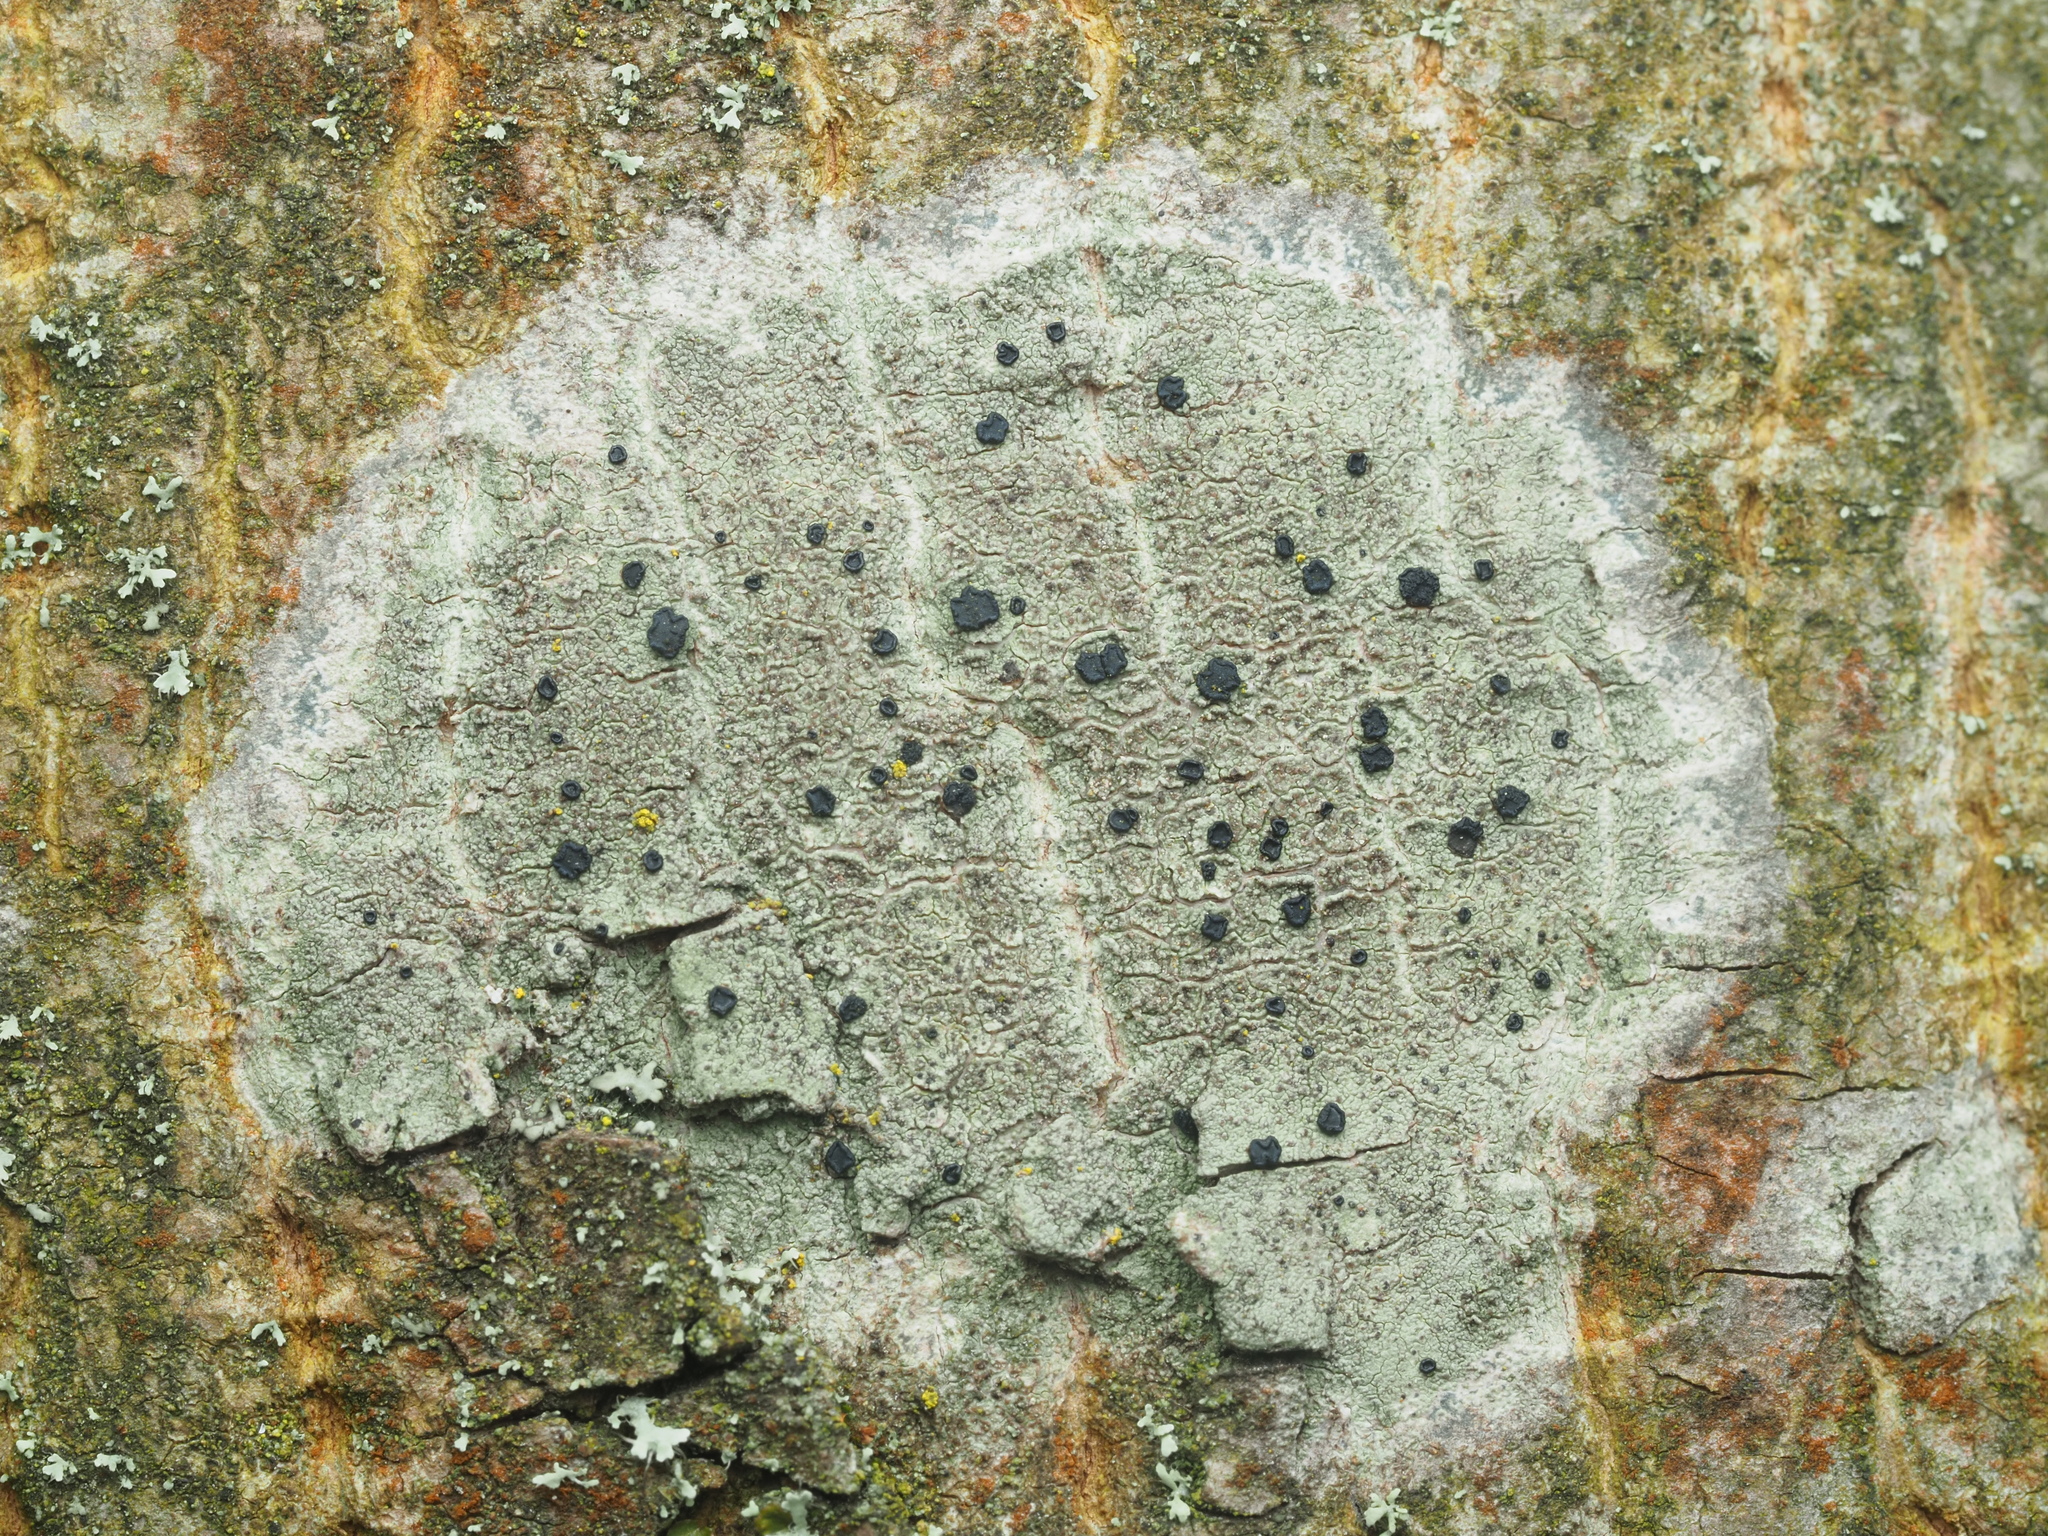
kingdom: Fungi
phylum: Ascomycota
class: Lecanoromycetes
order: Lecanorales
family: Lecanoraceae
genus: Lecidella
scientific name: Lecidella elaeochroma
